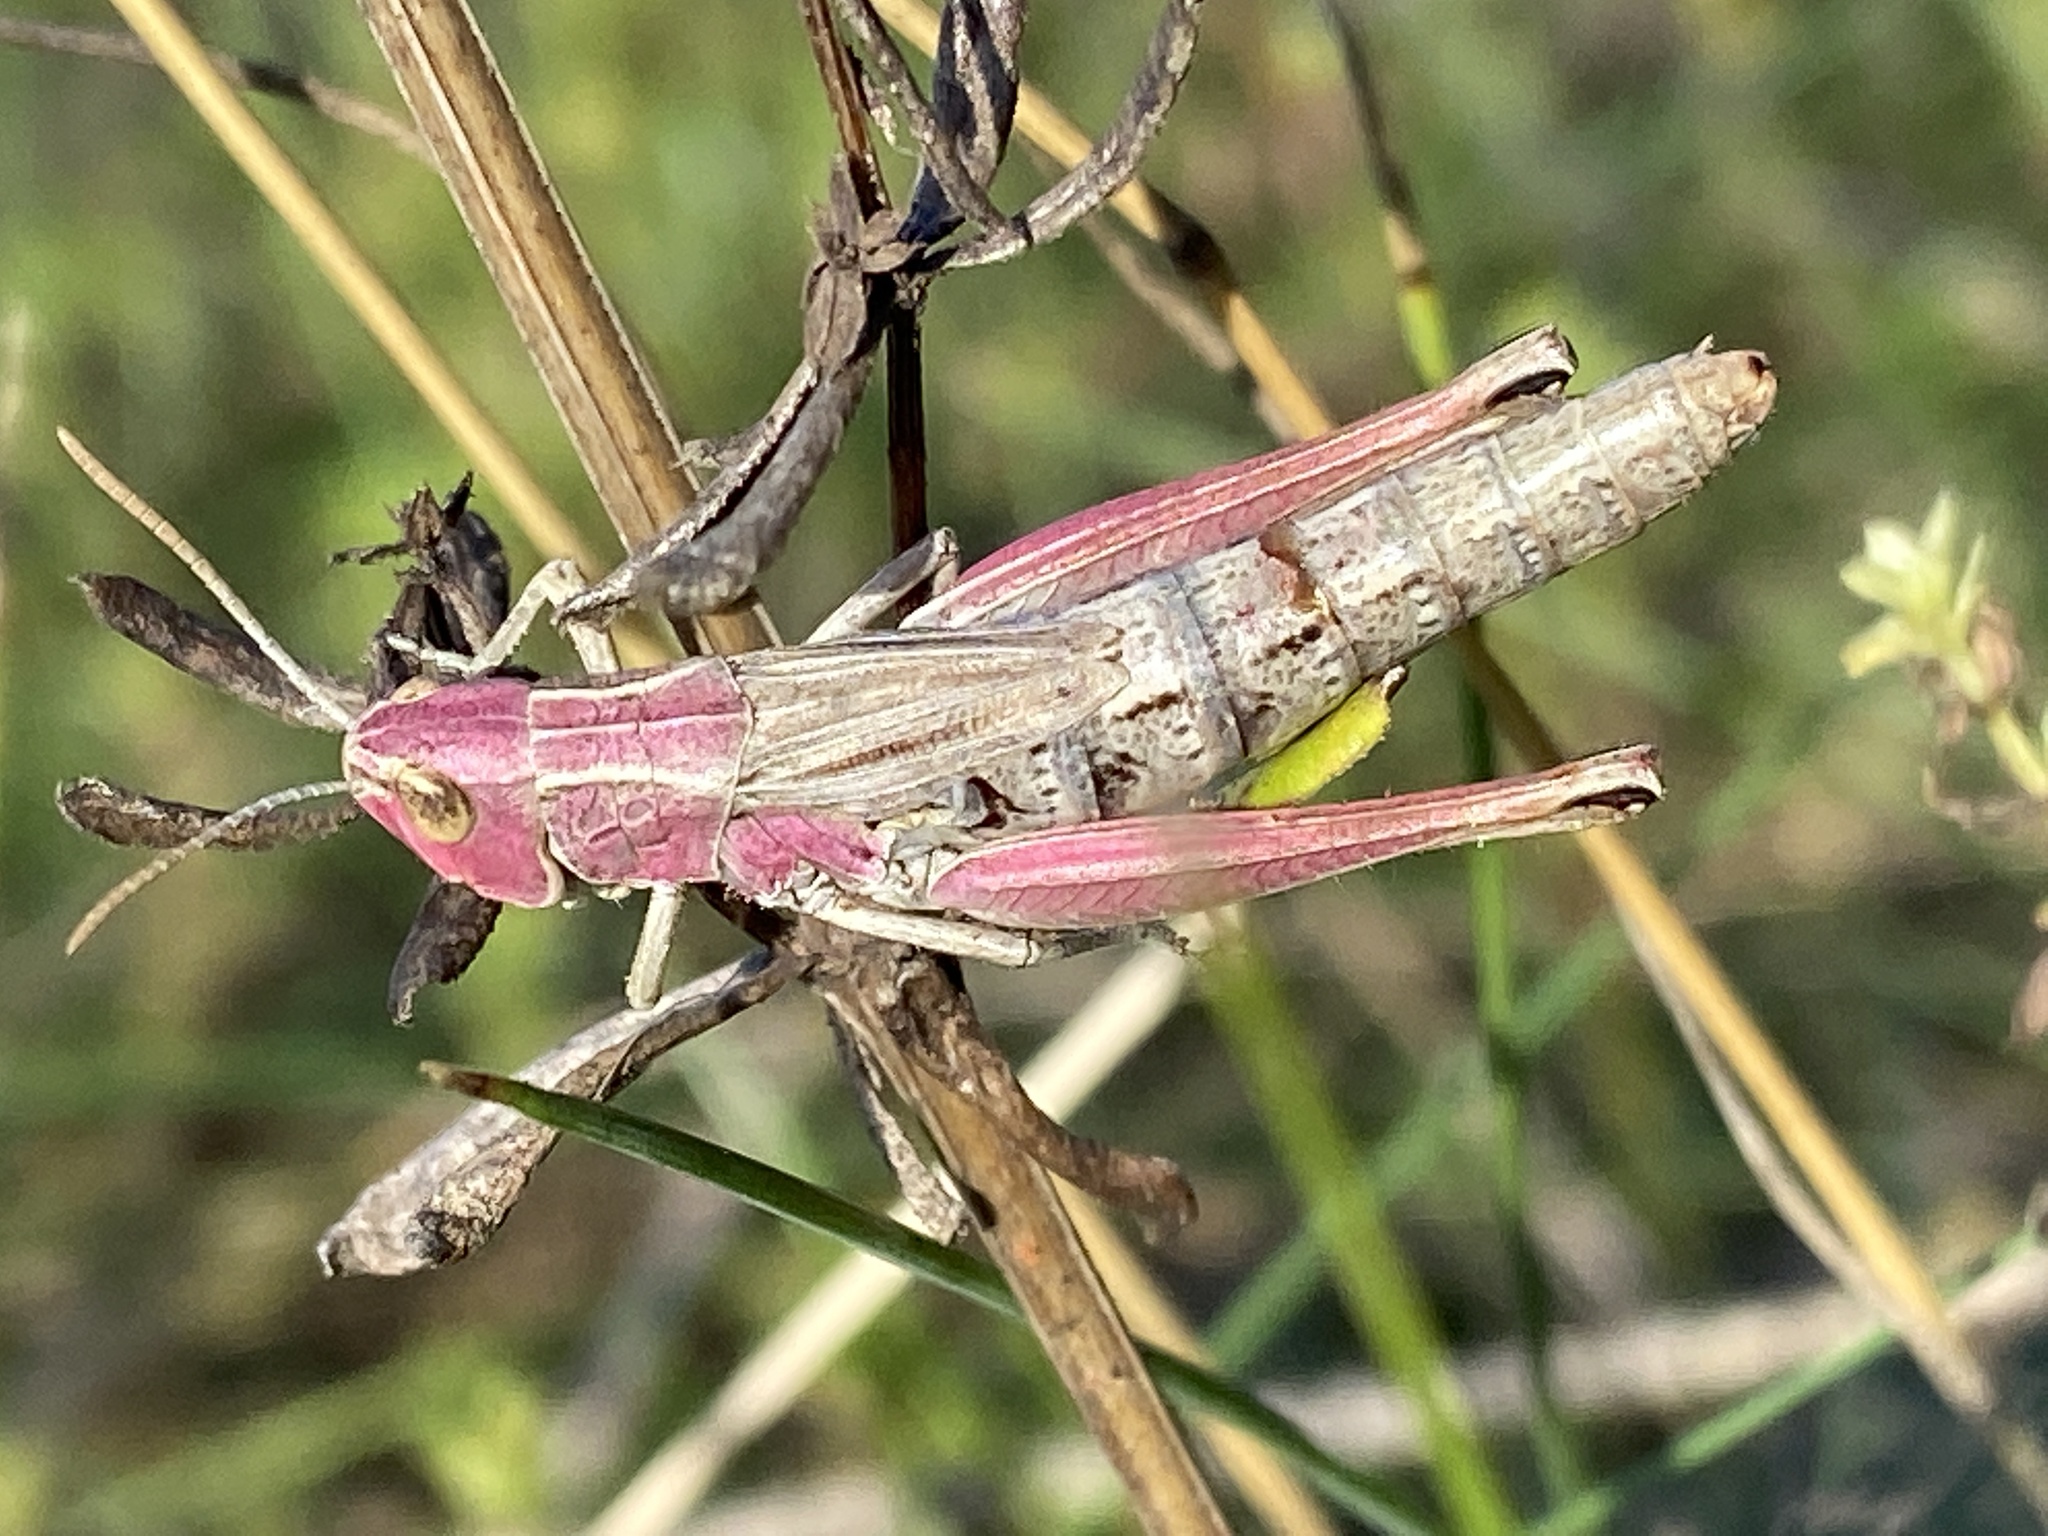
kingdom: Animalia
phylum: Arthropoda
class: Insecta
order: Orthoptera
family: Acrididae
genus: Pseudochorthippus
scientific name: Pseudochorthippus parallelus
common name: Meadow grasshopper
